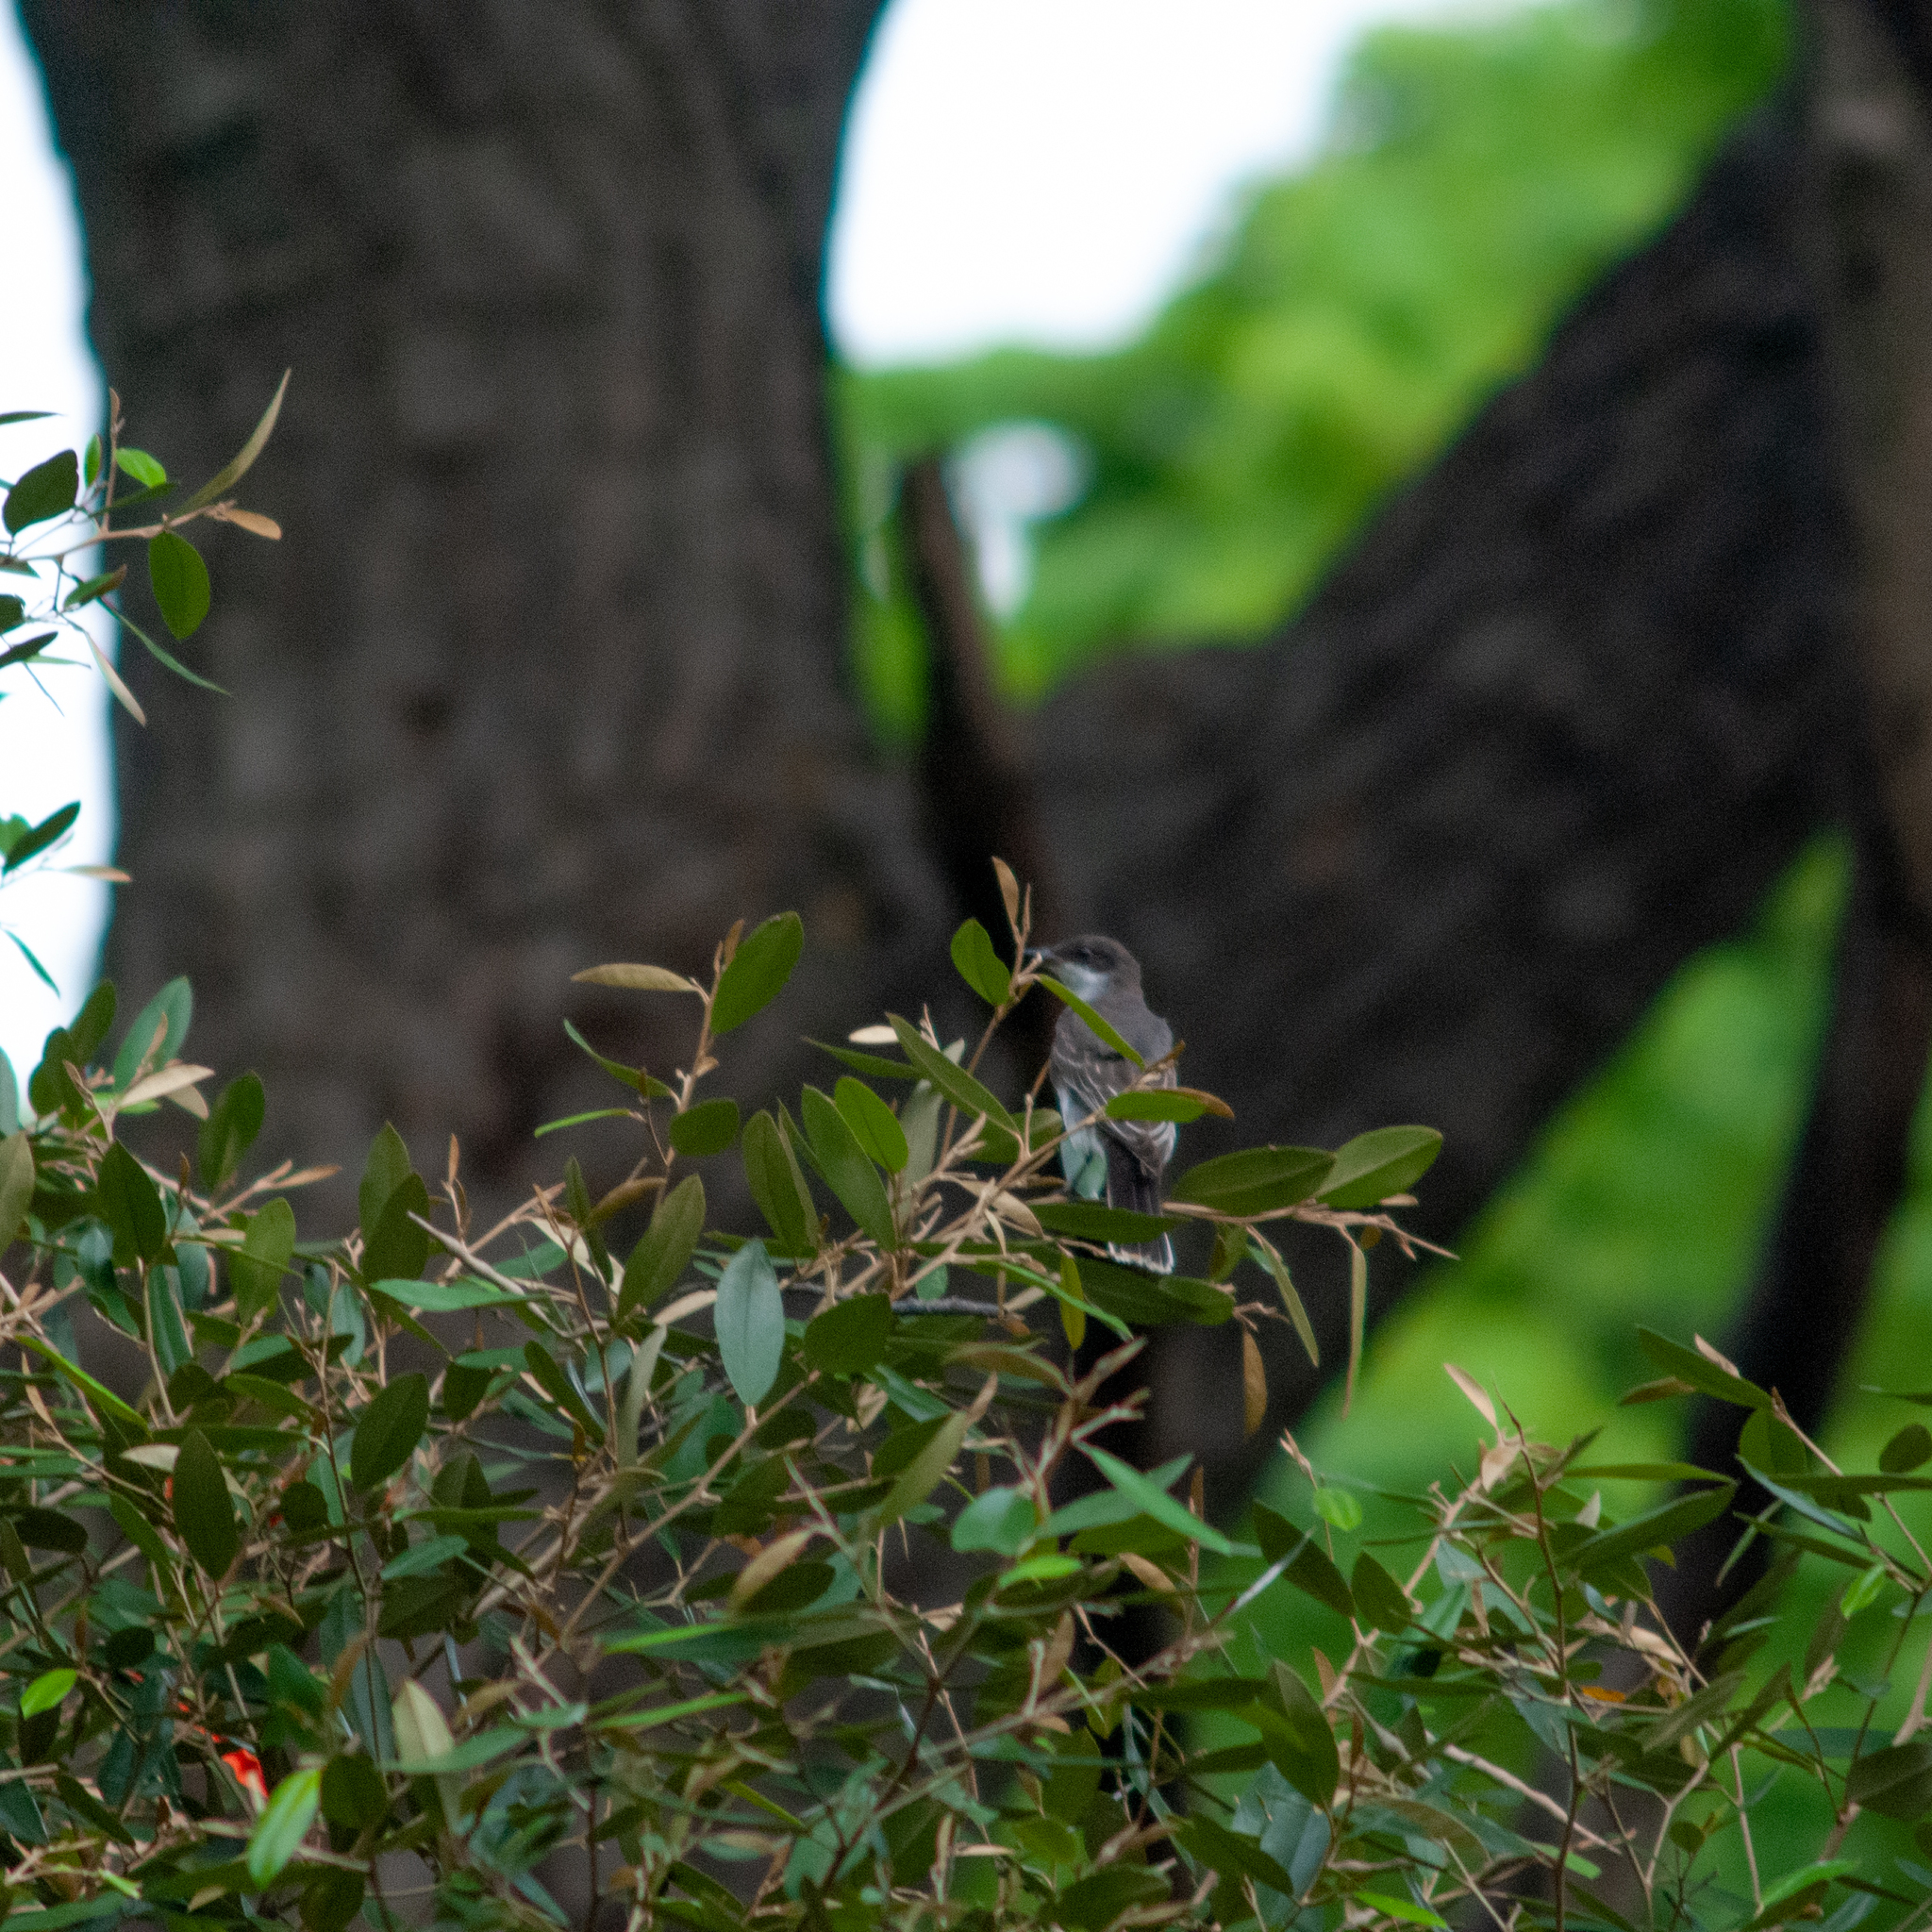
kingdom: Animalia
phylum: Chordata
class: Aves
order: Passeriformes
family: Tyrannidae
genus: Tyrannus
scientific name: Tyrannus tyrannus
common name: Eastern kingbird
